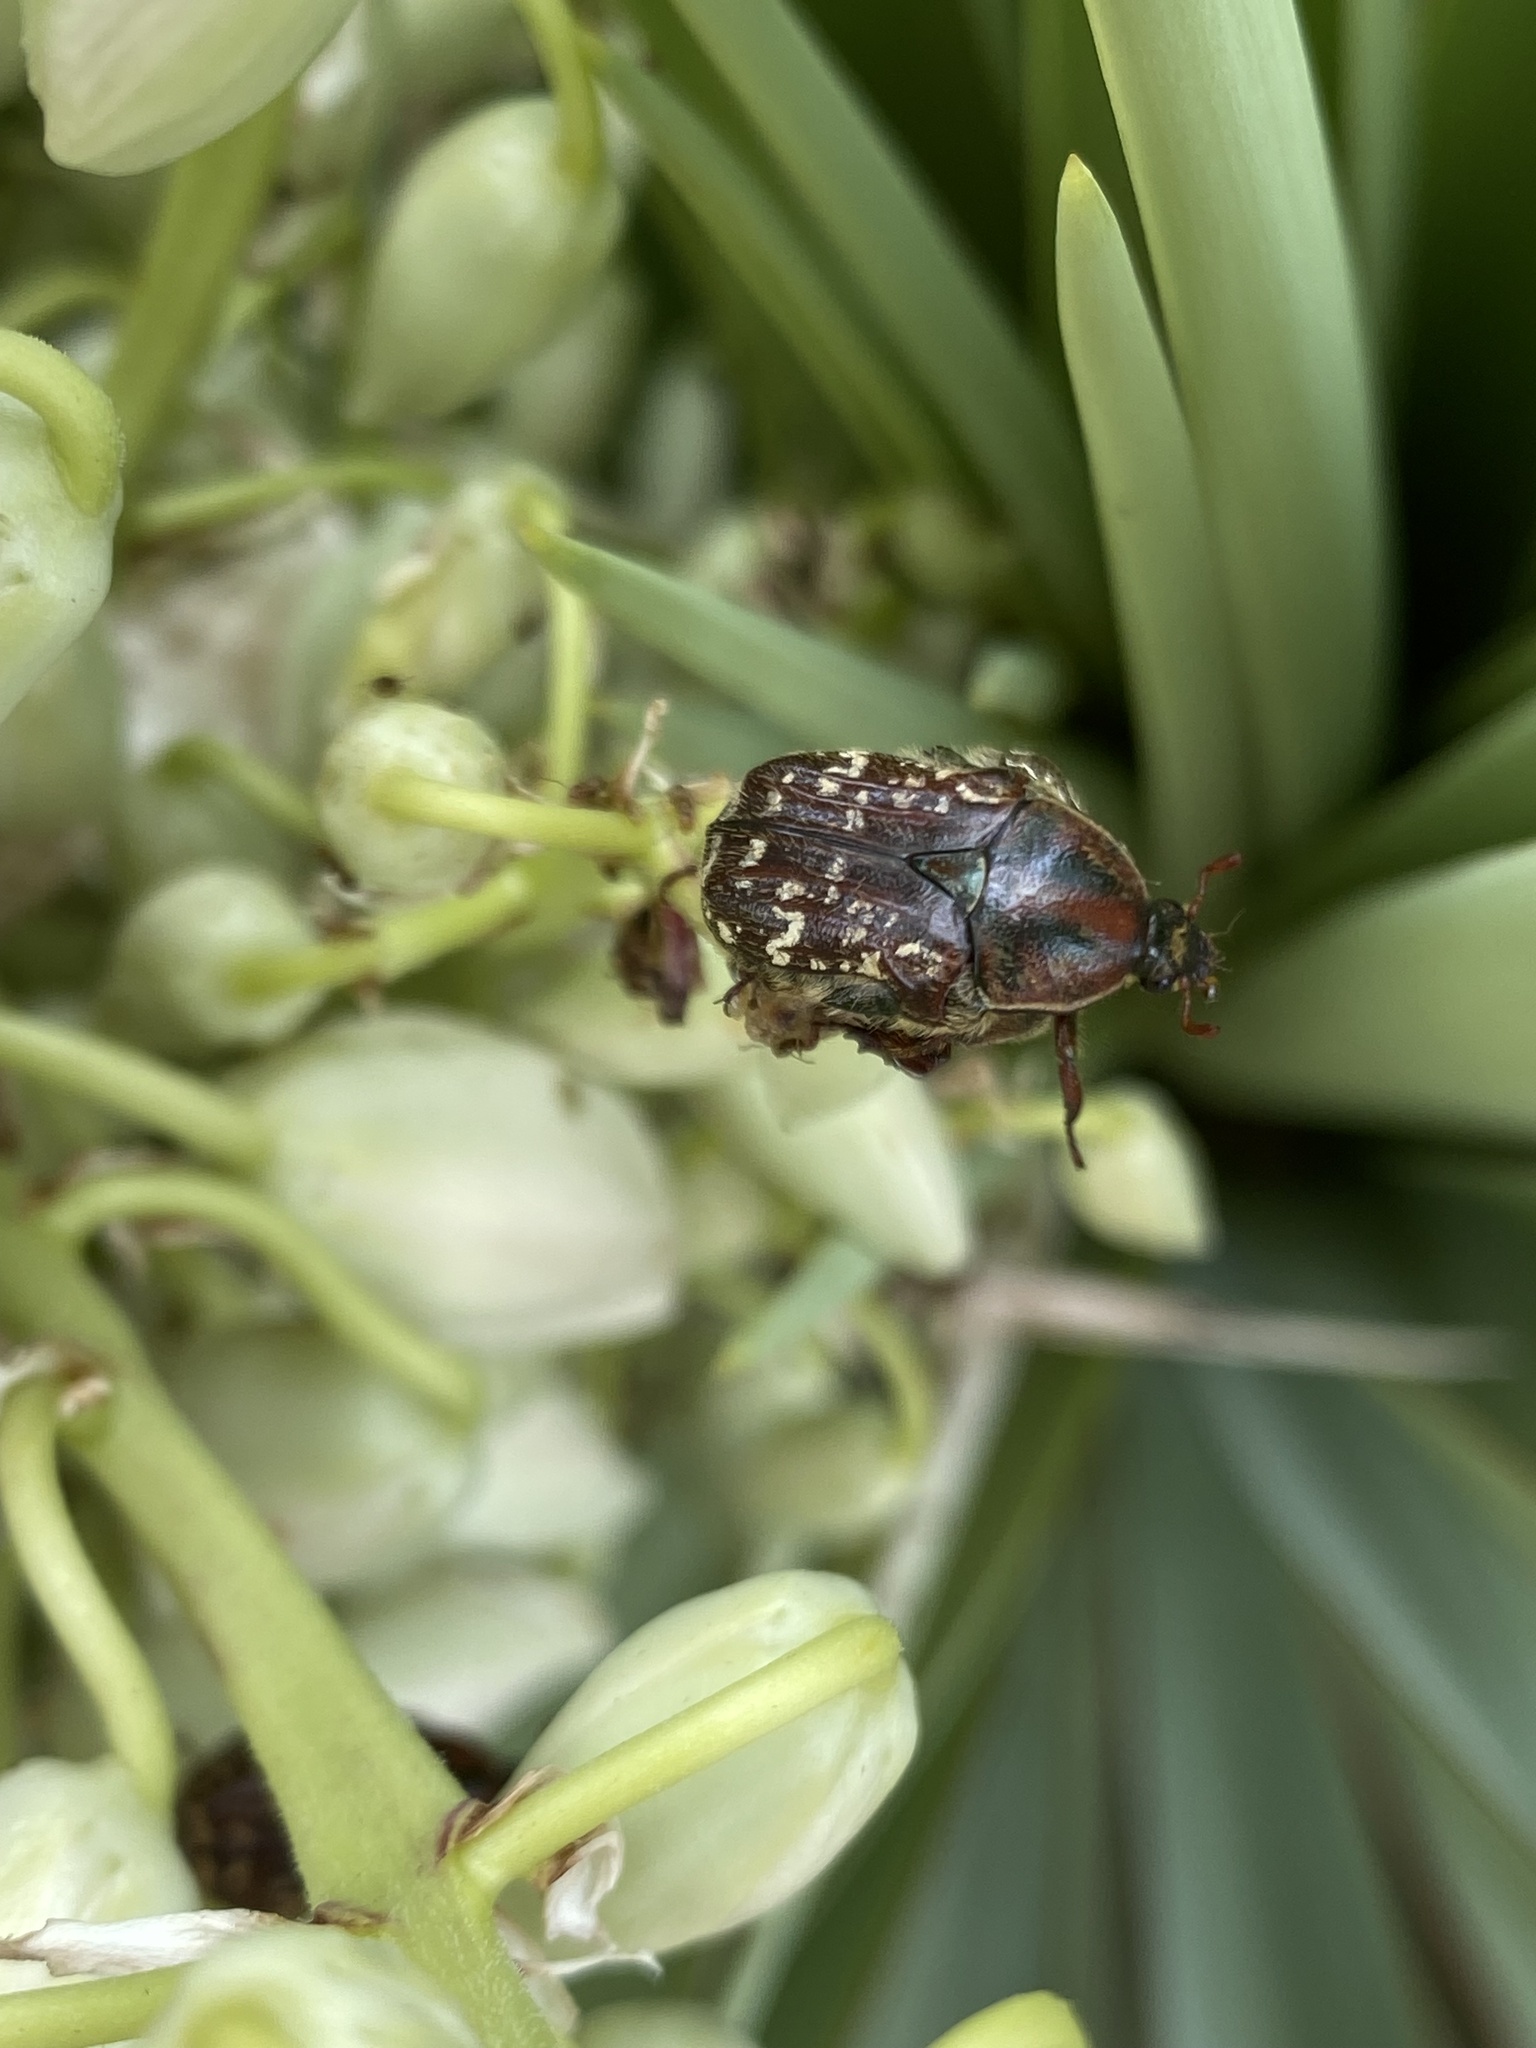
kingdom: Animalia
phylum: Arthropoda
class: Insecta
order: Coleoptera
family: Scarabaeidae
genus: Euphoria
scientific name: Euphoria leucographa
